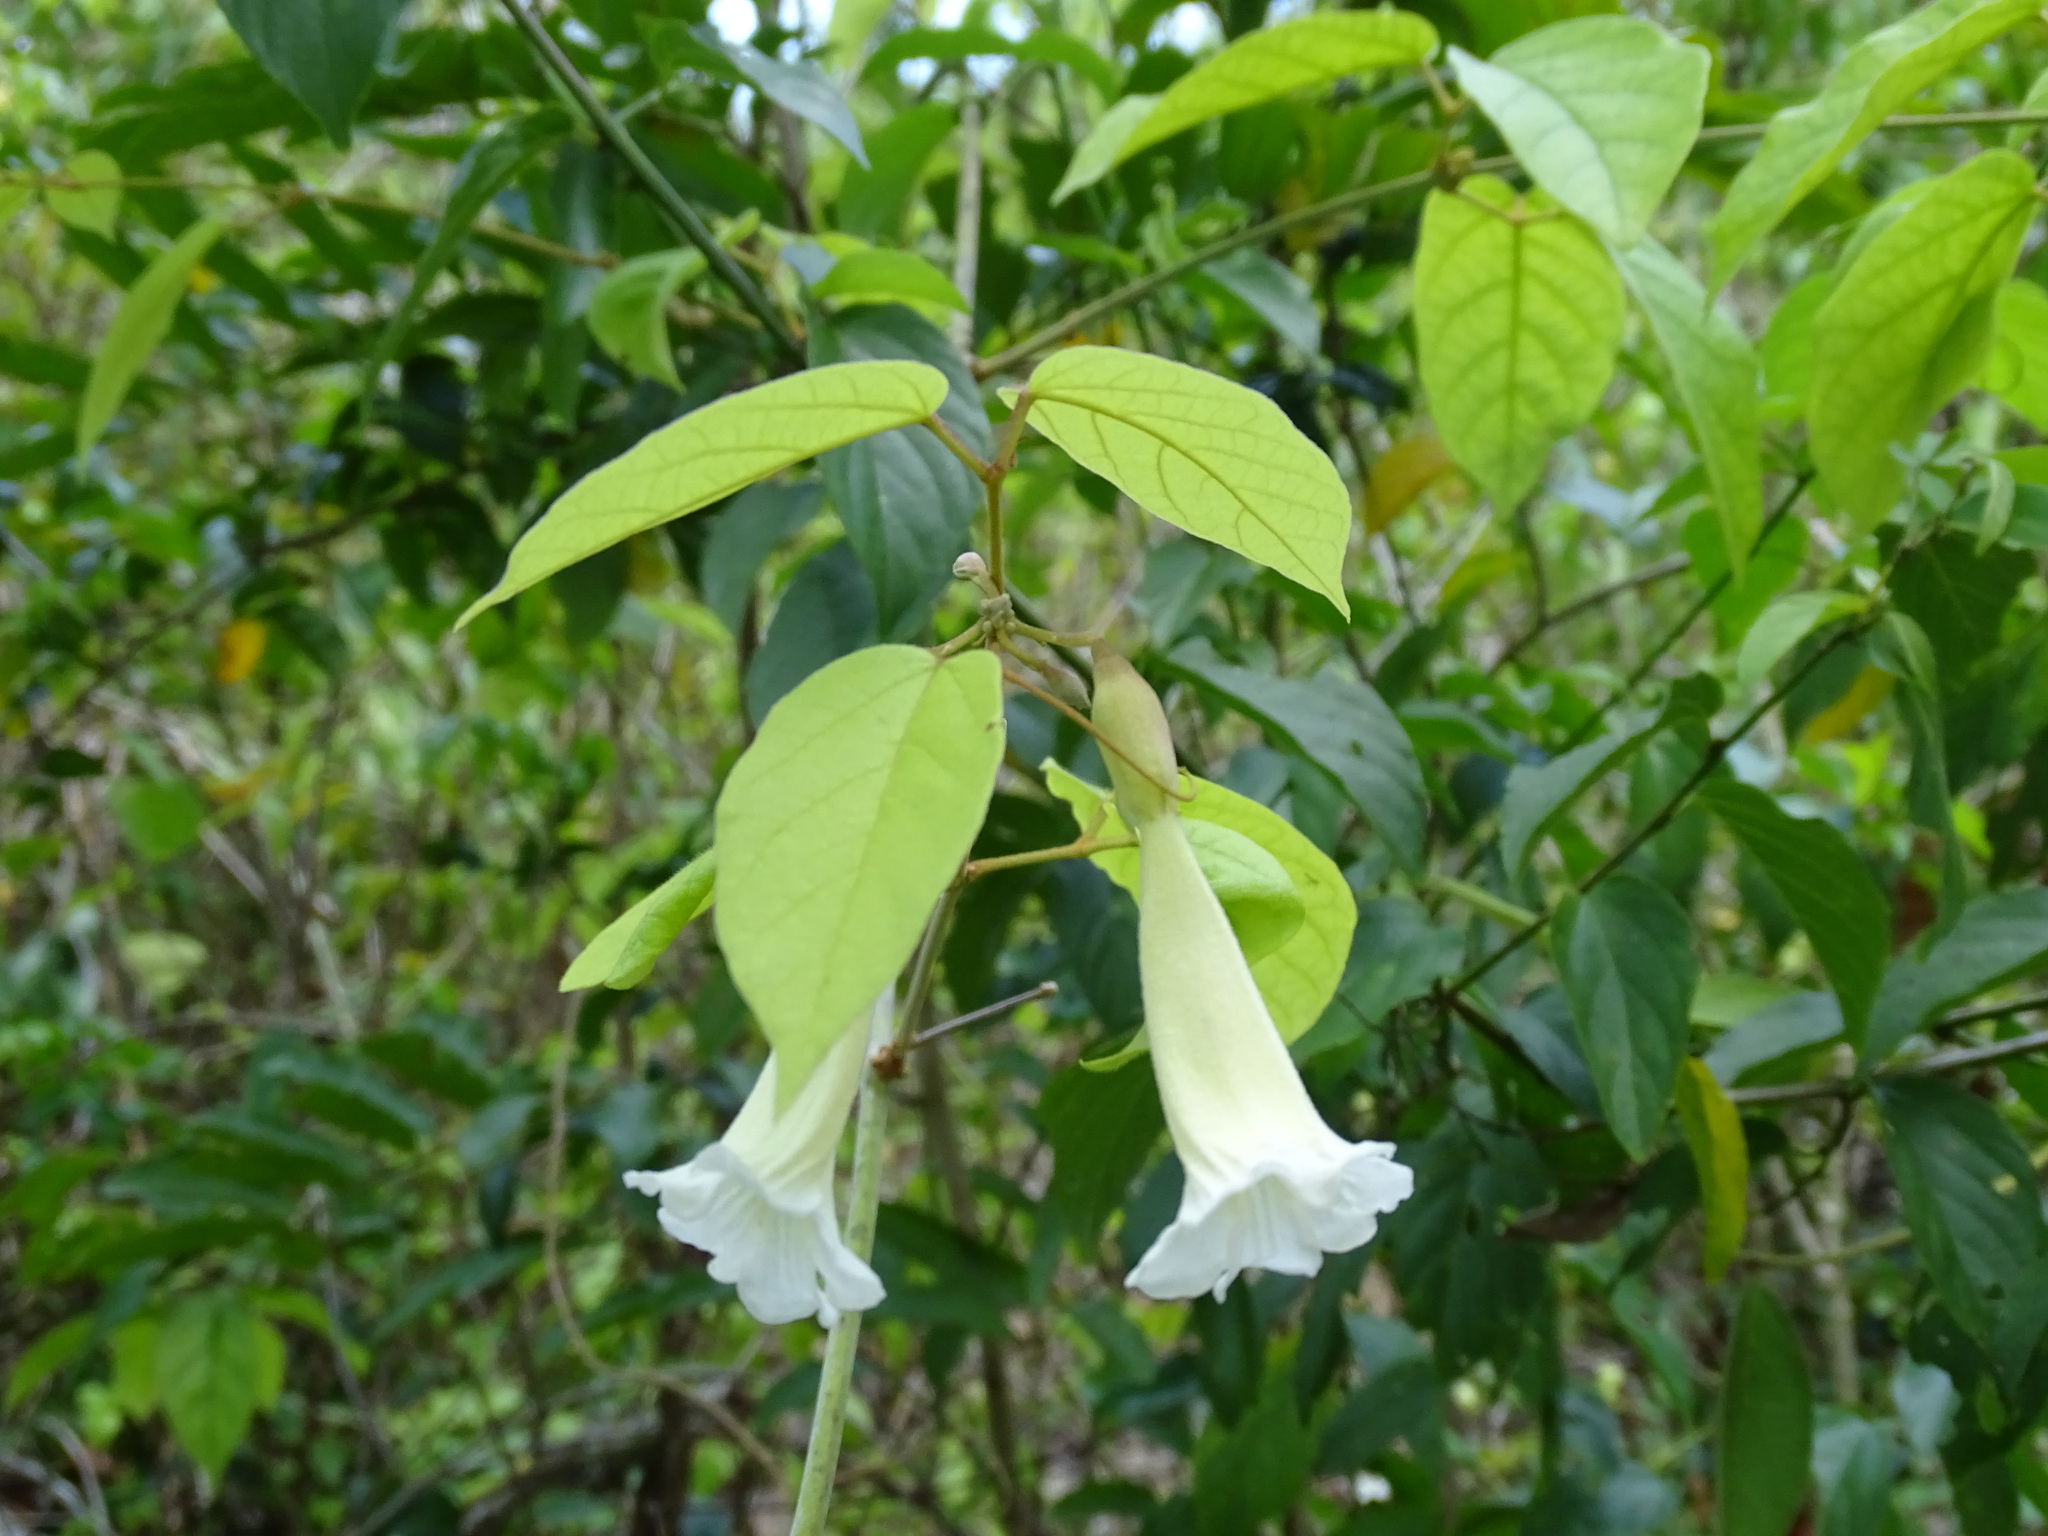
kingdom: Plantae
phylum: Tracheophyta
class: Magnoliopsida
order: Lamiales
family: Bignoniaceae
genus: Stizophyllum
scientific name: Stizophyllum riparium
